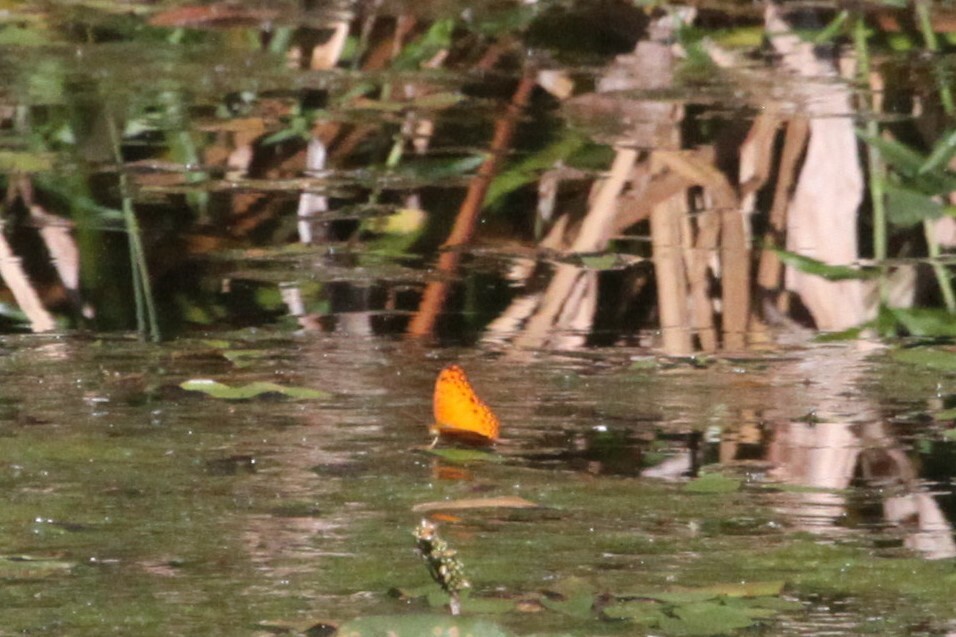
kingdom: Animalia
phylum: Arthropoda
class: Insecta
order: Lepidoptera
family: Nymphalidae
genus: Phalanta
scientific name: Phalanta phalantha
